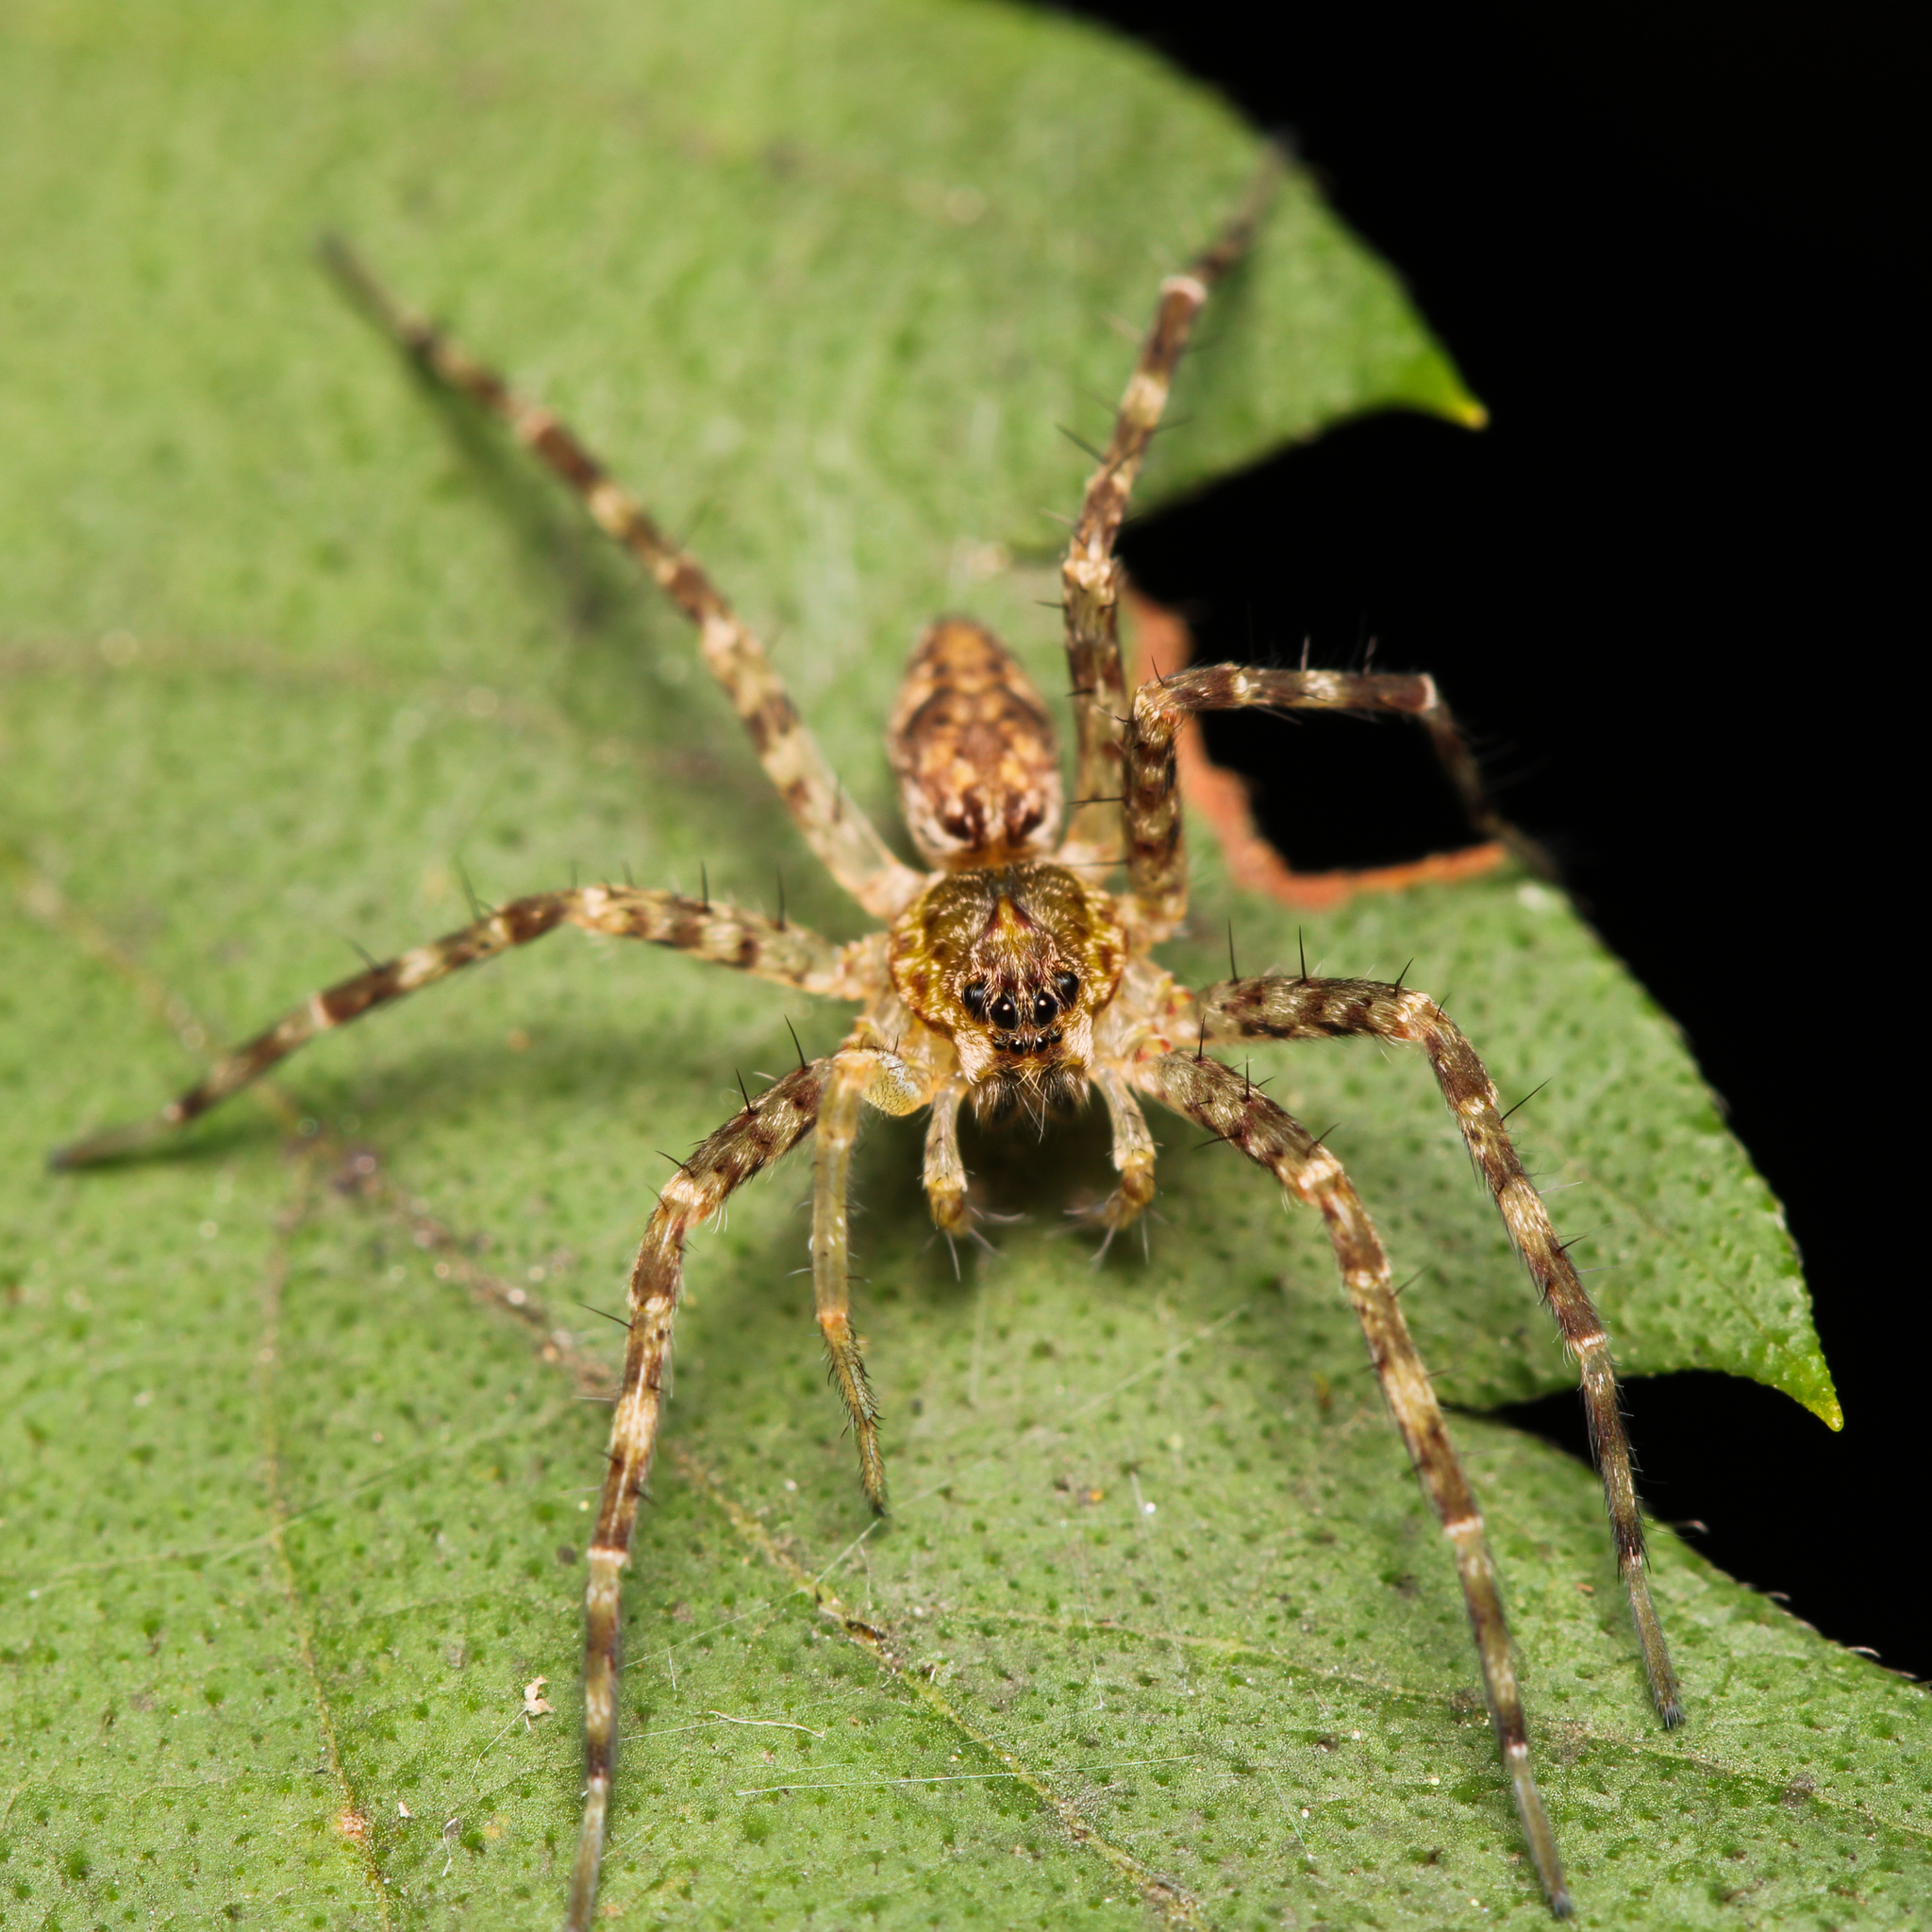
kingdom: Animalia
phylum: Arthropoda
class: Arachnida
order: Araneae
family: Pisauridae
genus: Dolomedes
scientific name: Dolomedes tenebrosus
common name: Dark fishing spider
